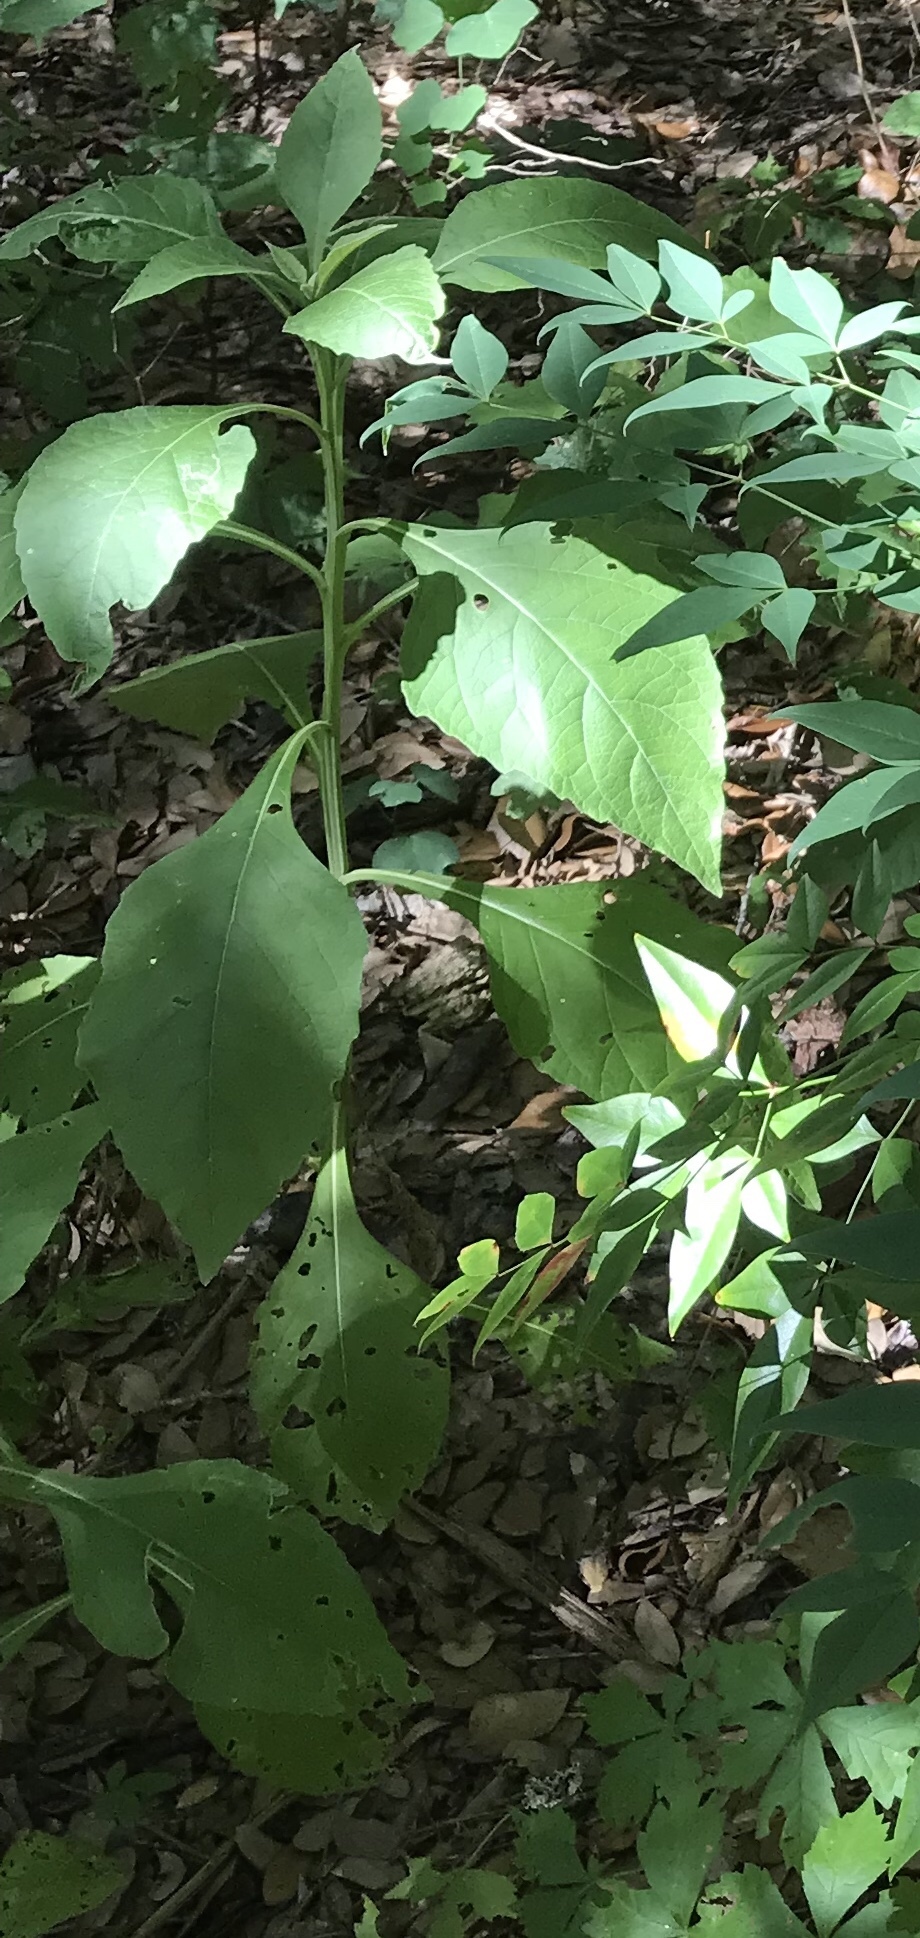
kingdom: Plantae
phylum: Tracheophyta
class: Magnoliopsida
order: Asterales
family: Asteraceae
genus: Verbesina
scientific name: Verbesina virginica
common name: Frostweed
